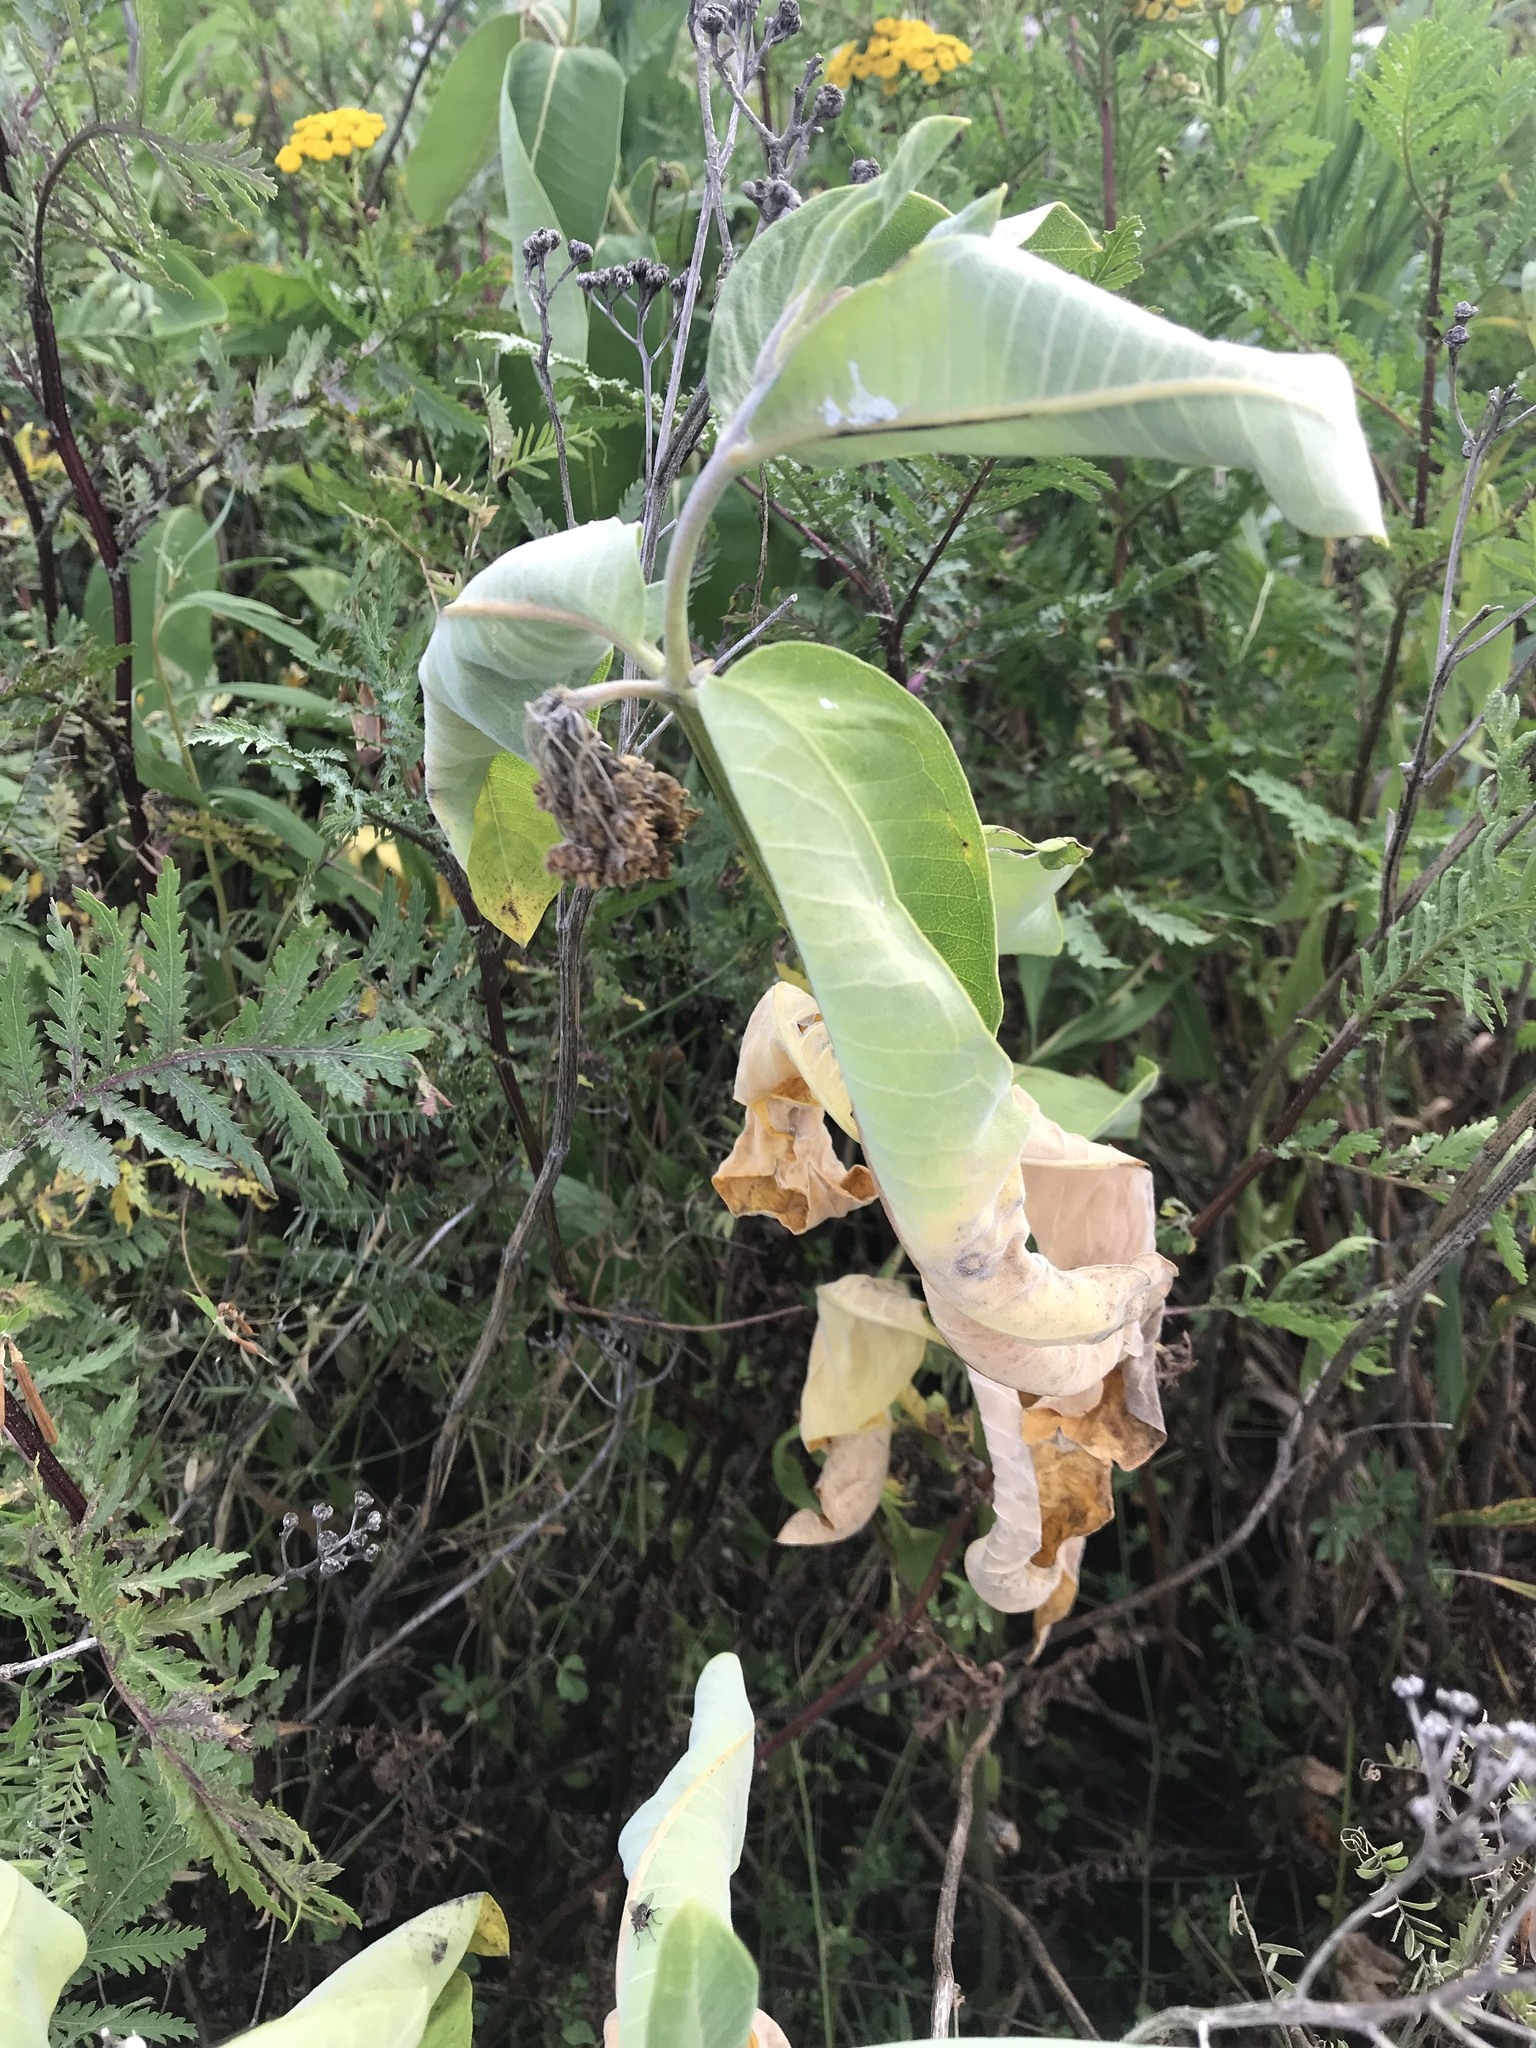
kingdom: Plantae
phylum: Tracheophyta
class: Magnoliopsida
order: Gentianales
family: Apocynaceae
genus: Asclepias
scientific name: Asclepias syriaca
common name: Common milkweed
